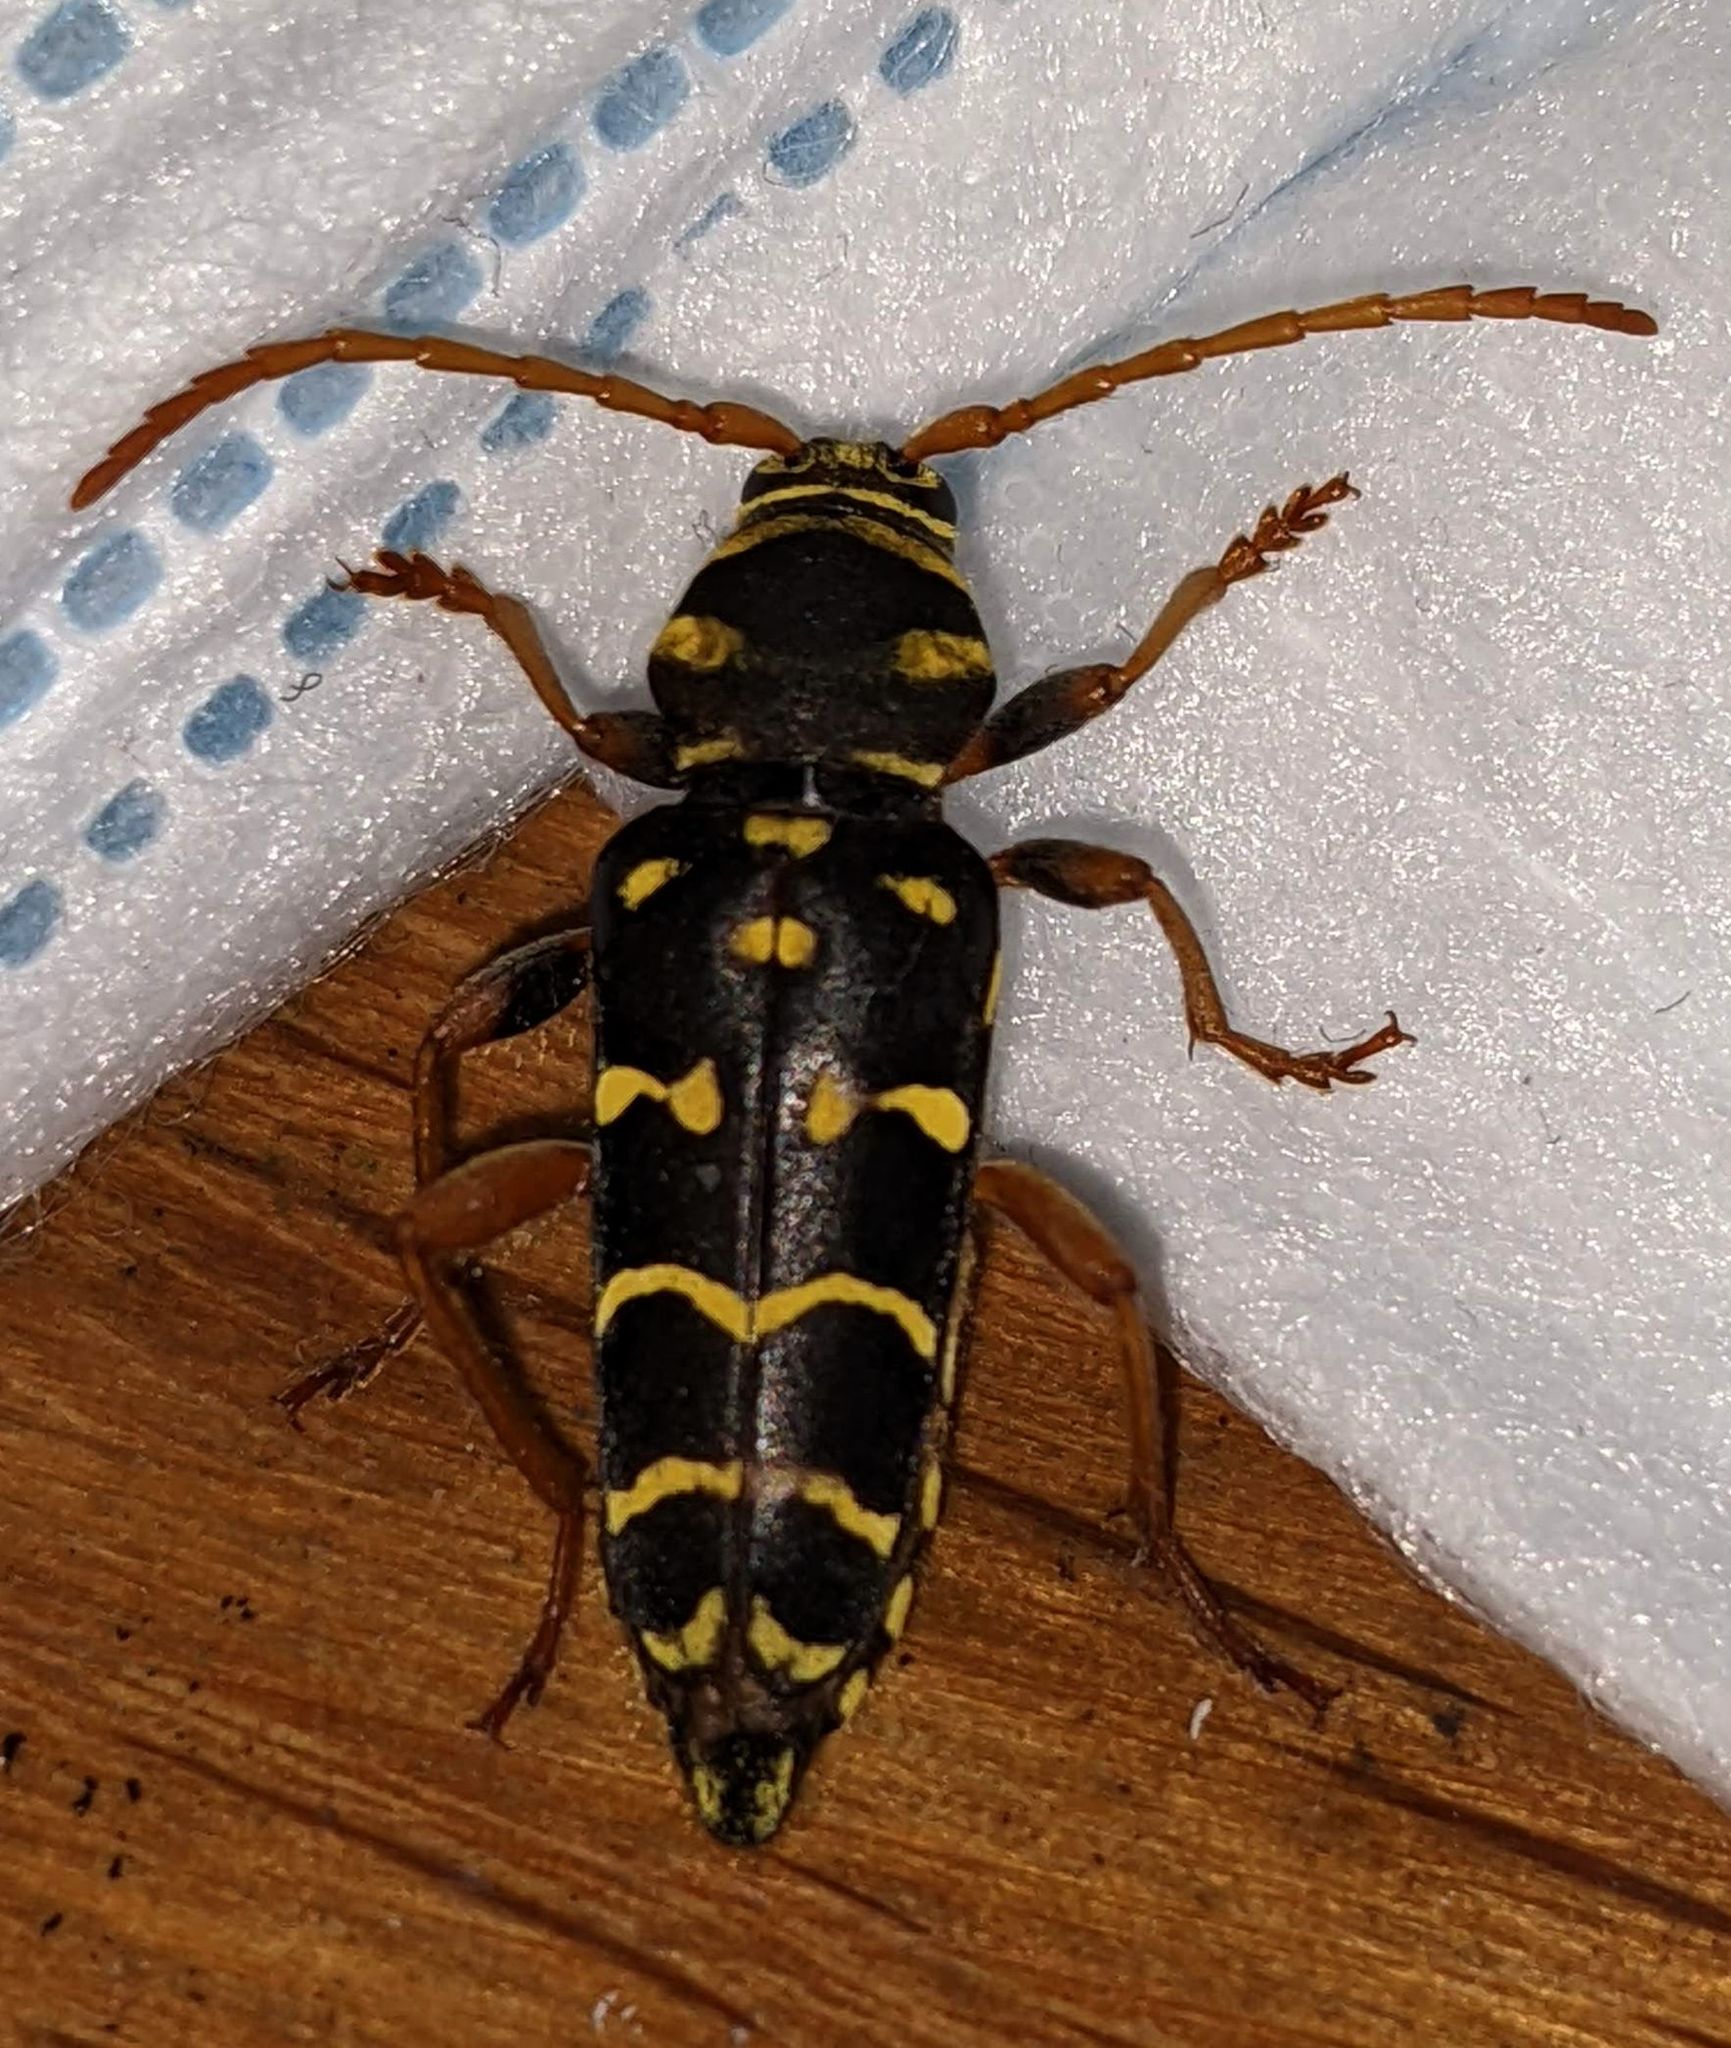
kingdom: Animalia
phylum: Arthropoda
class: Insecta
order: Coleoptera
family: Cerambycidae
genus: Plagionotus
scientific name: Plagionotus arcuatus
